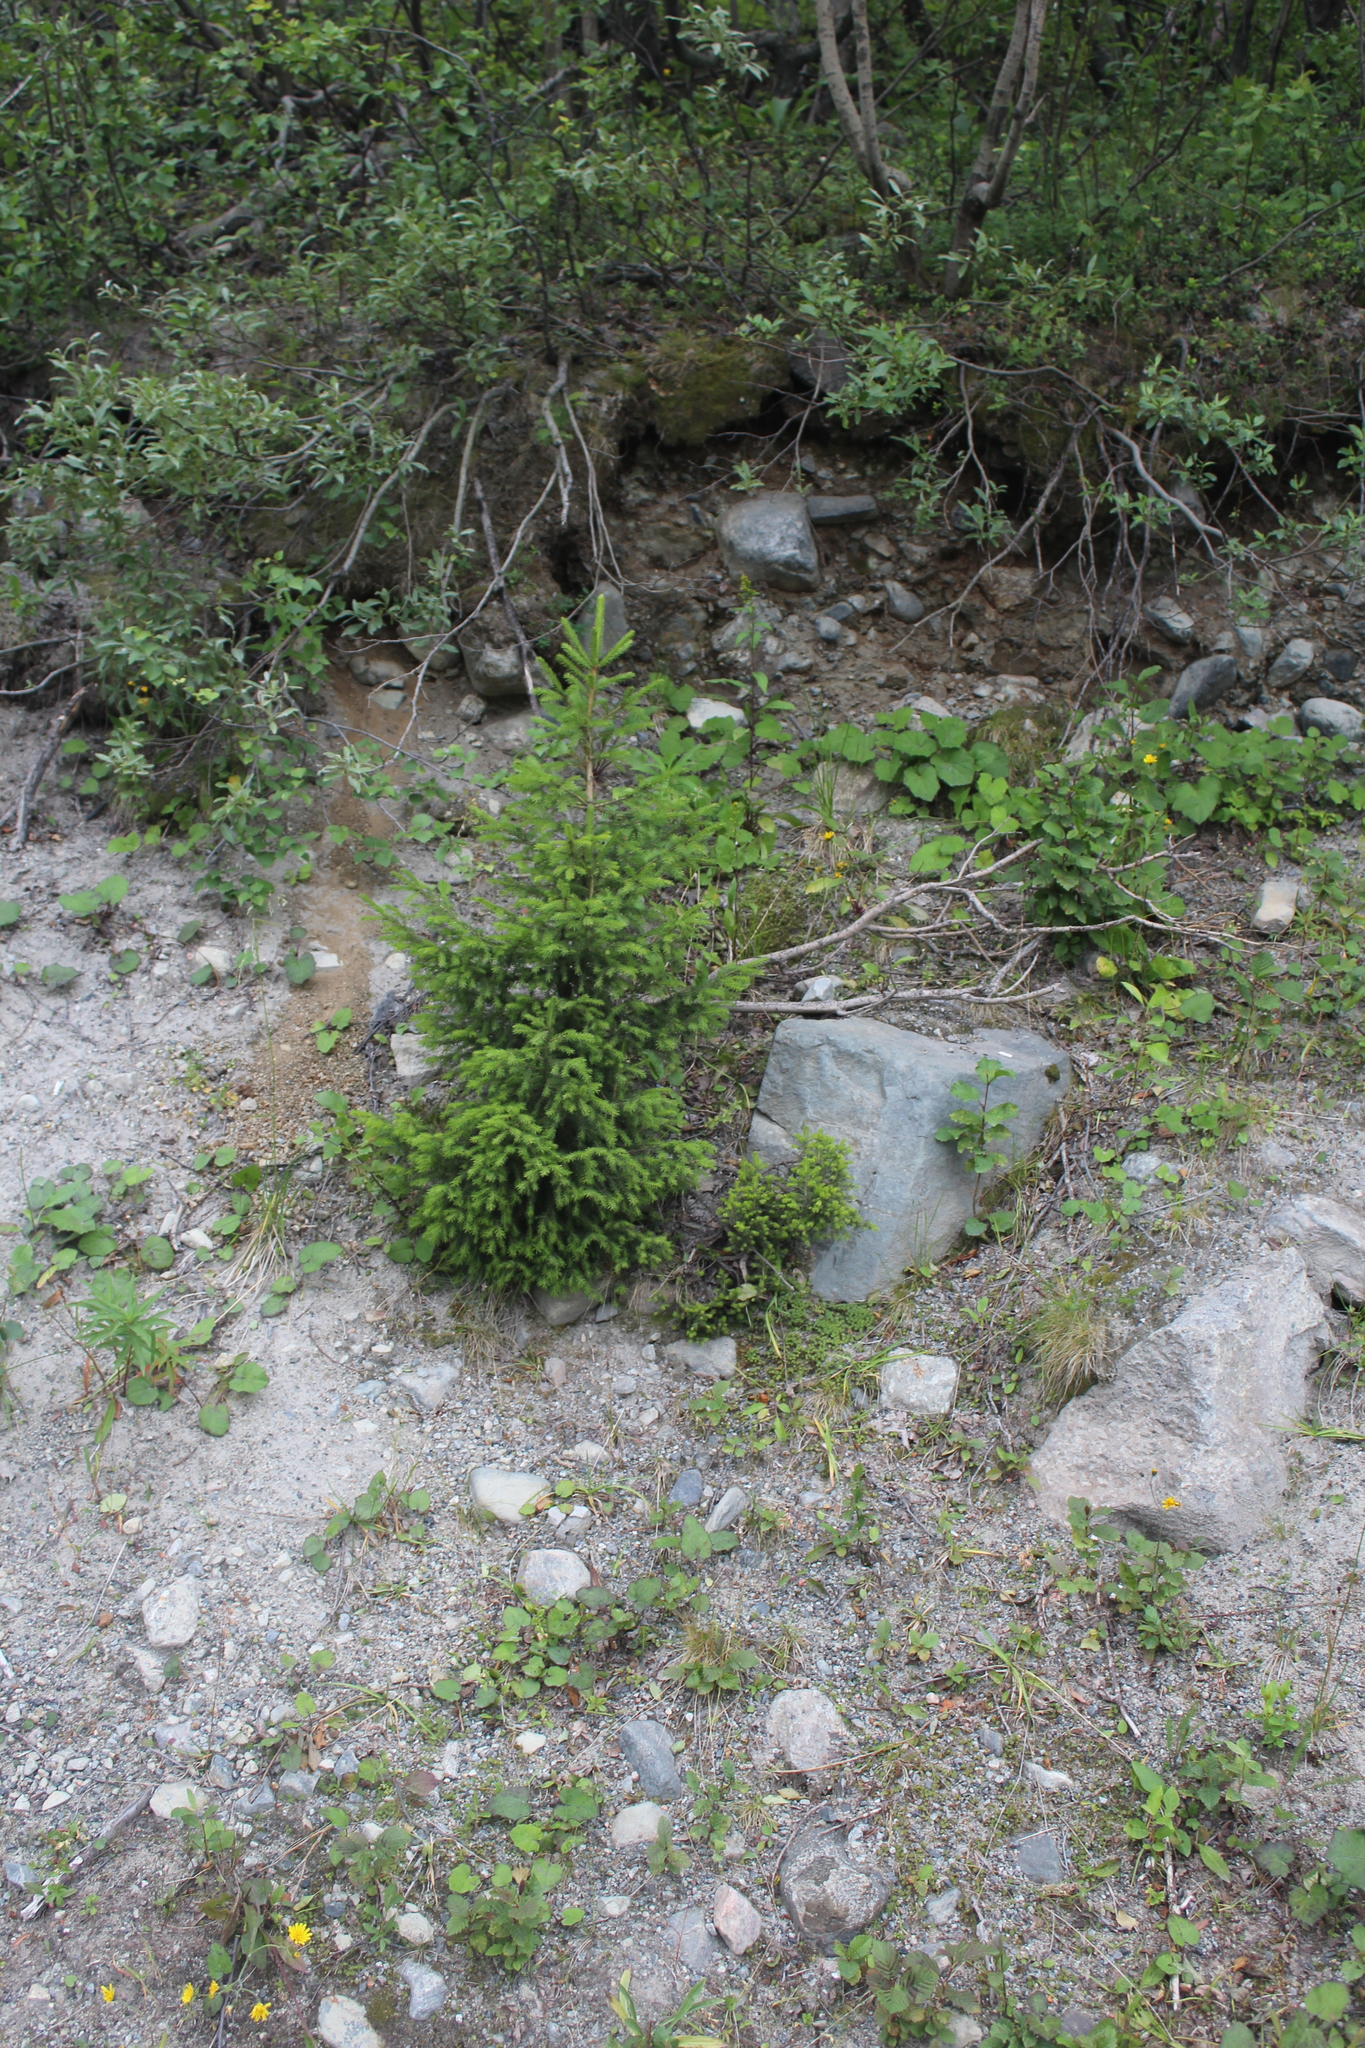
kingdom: Plantae
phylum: Tracheophyta
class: Pinopsida
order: Pinales
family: Pinaceae
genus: Picea
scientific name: Picea abies
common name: Norway spruce
